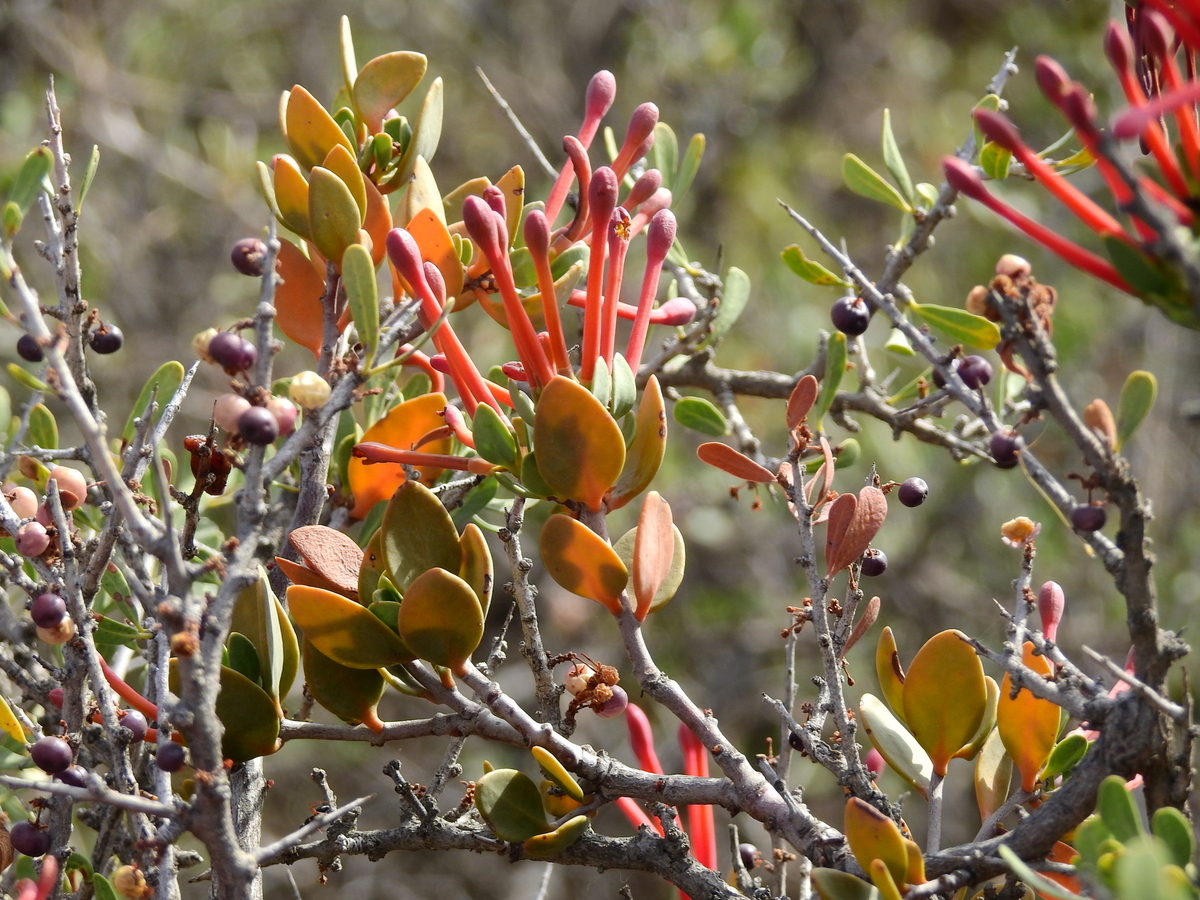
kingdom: Plantae
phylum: Tracheophyta
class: Magnoliopsida
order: Santalales
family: Loranthaceae
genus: Tristerix
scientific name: Tristerix verticillatus
